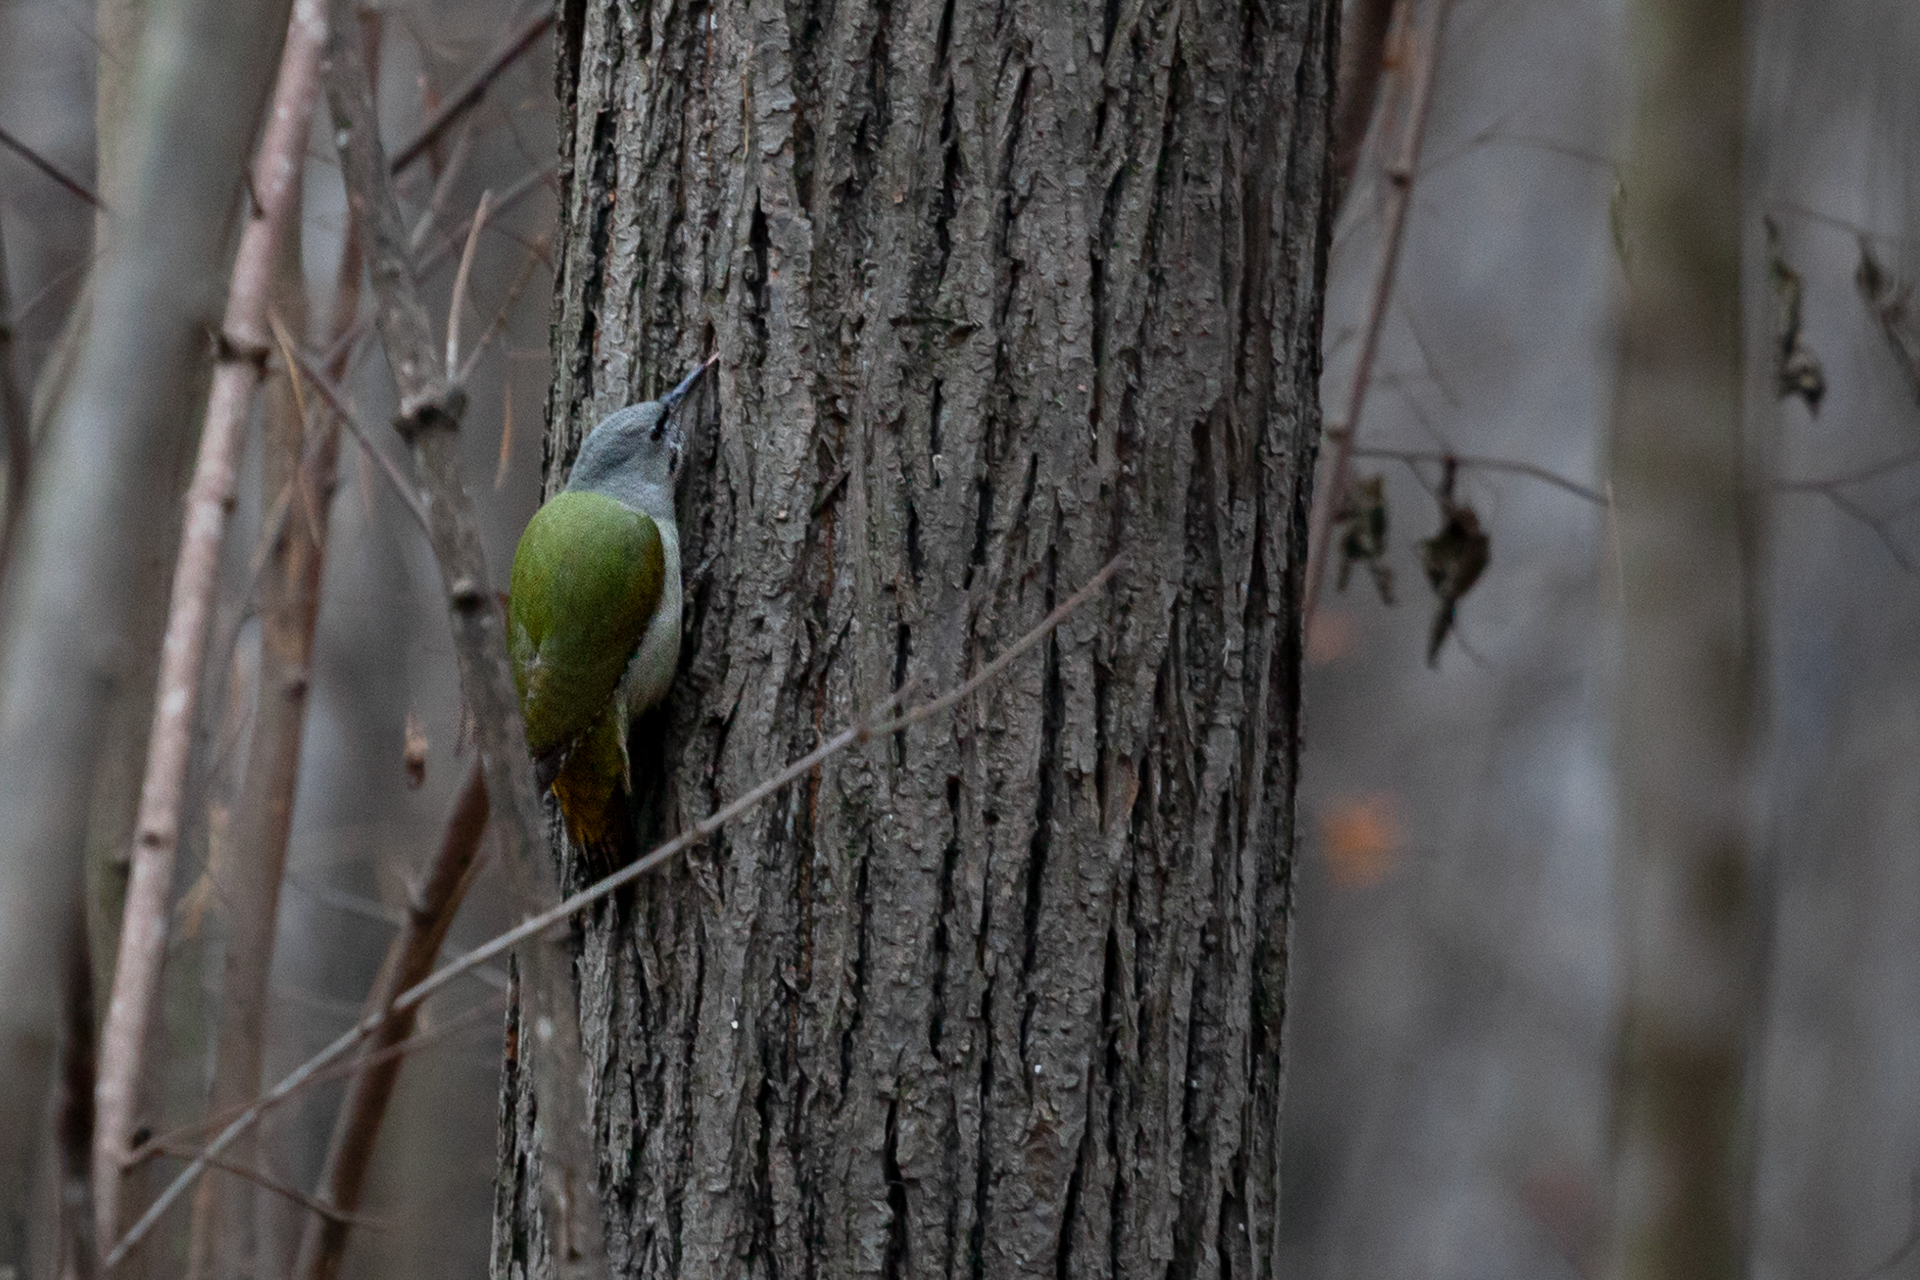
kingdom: Animalia
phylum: Chordata
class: Aves
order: Piciformes
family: Picidae
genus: Picus
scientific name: Picus canus
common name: Grey-headed woodpecker
